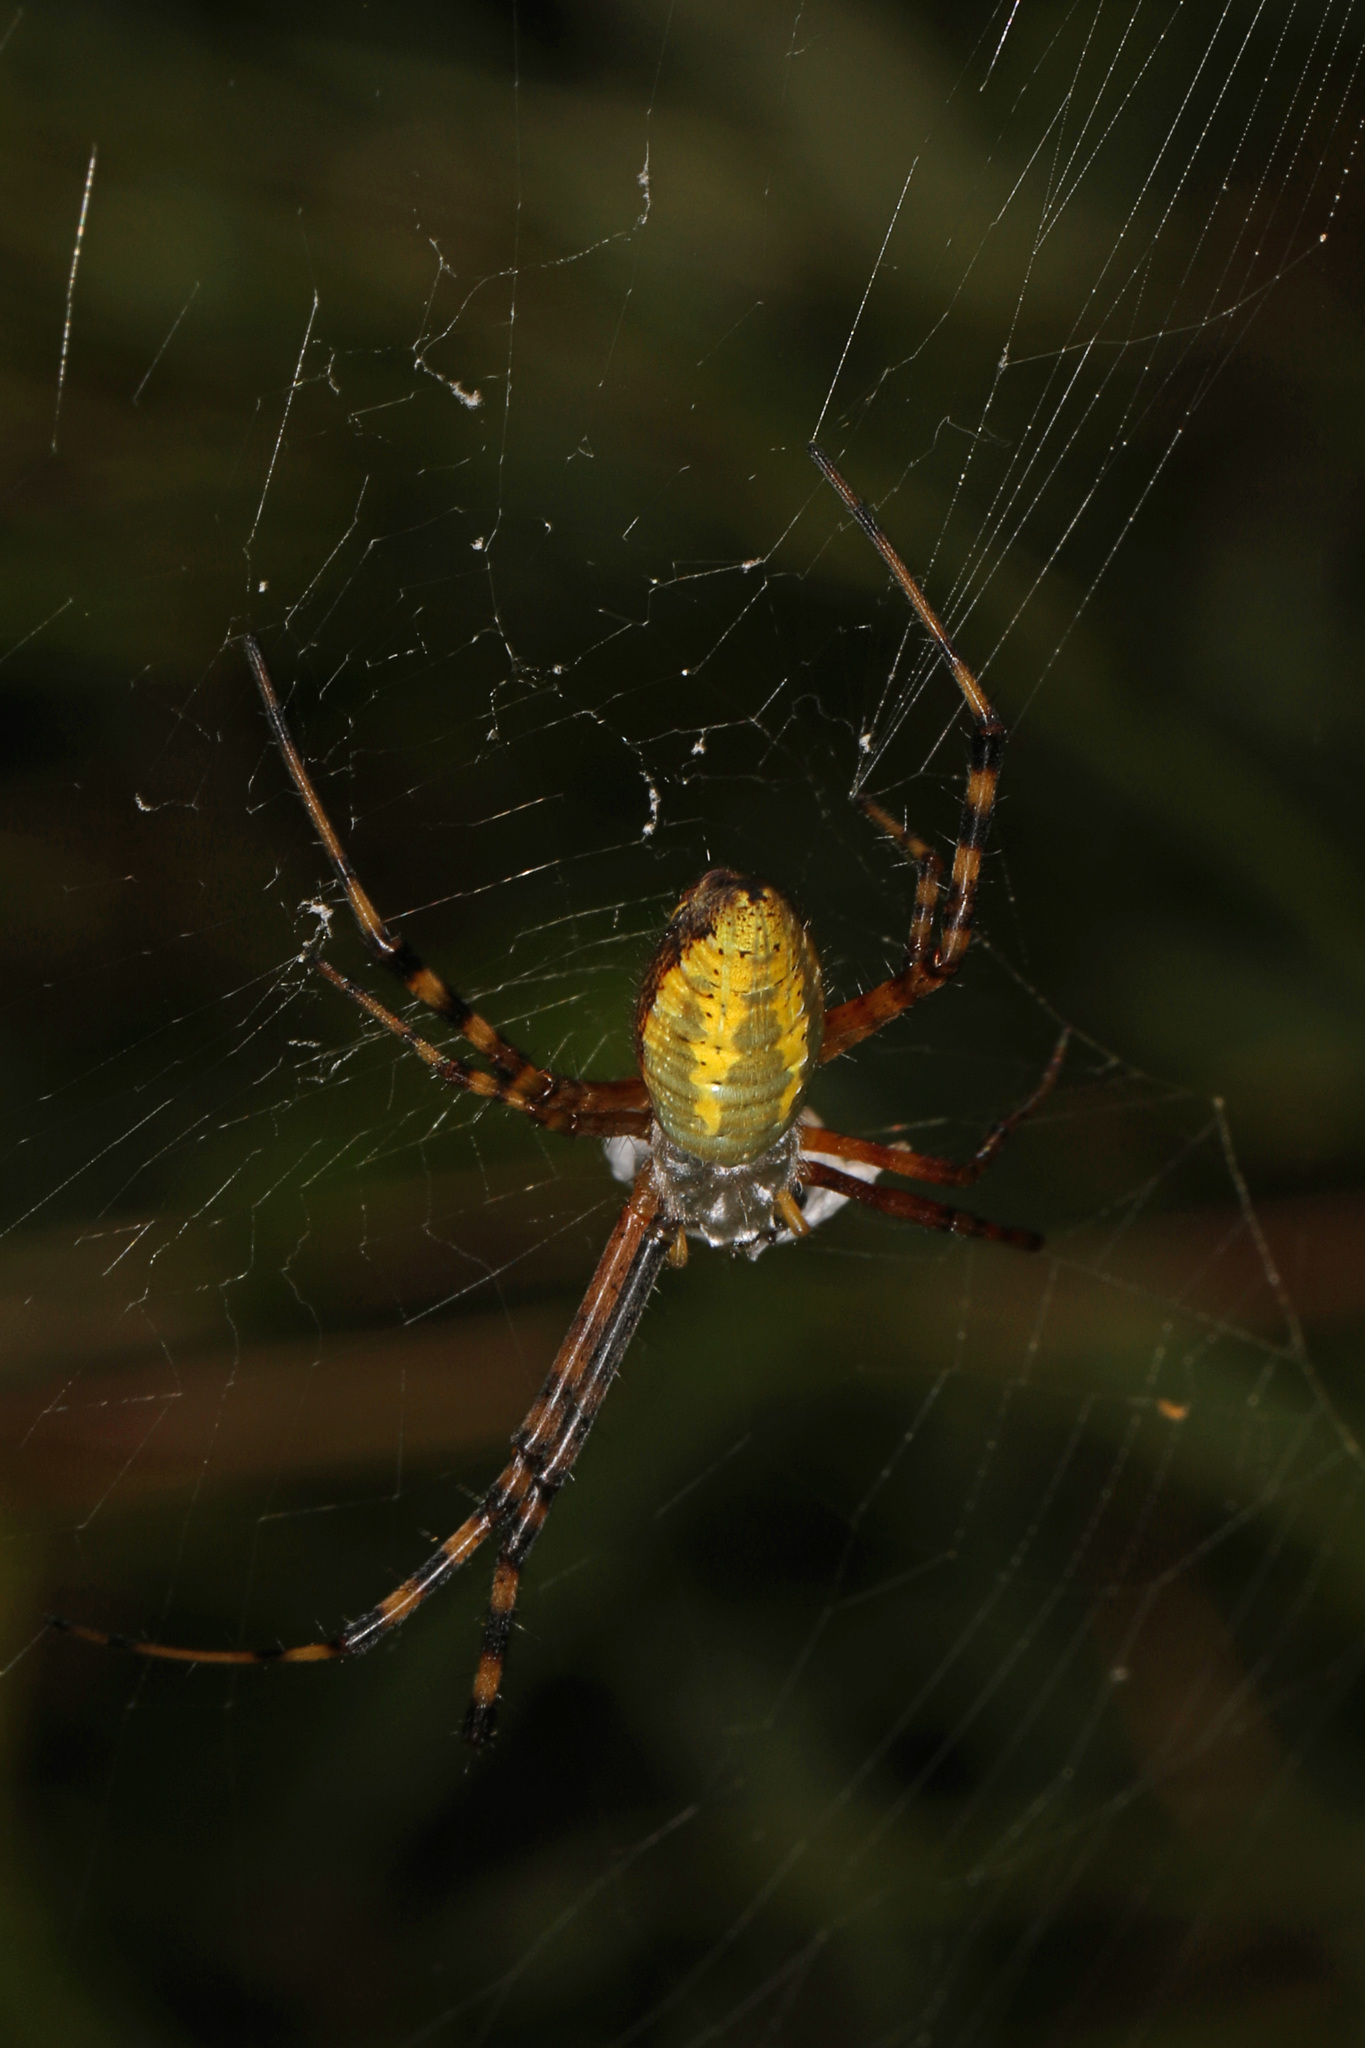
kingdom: Animalia
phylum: Arthropoda
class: Arachnida
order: Araneae
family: Araneidae
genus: Argiope
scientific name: Argiope trifasciata
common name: Banded garden spider
